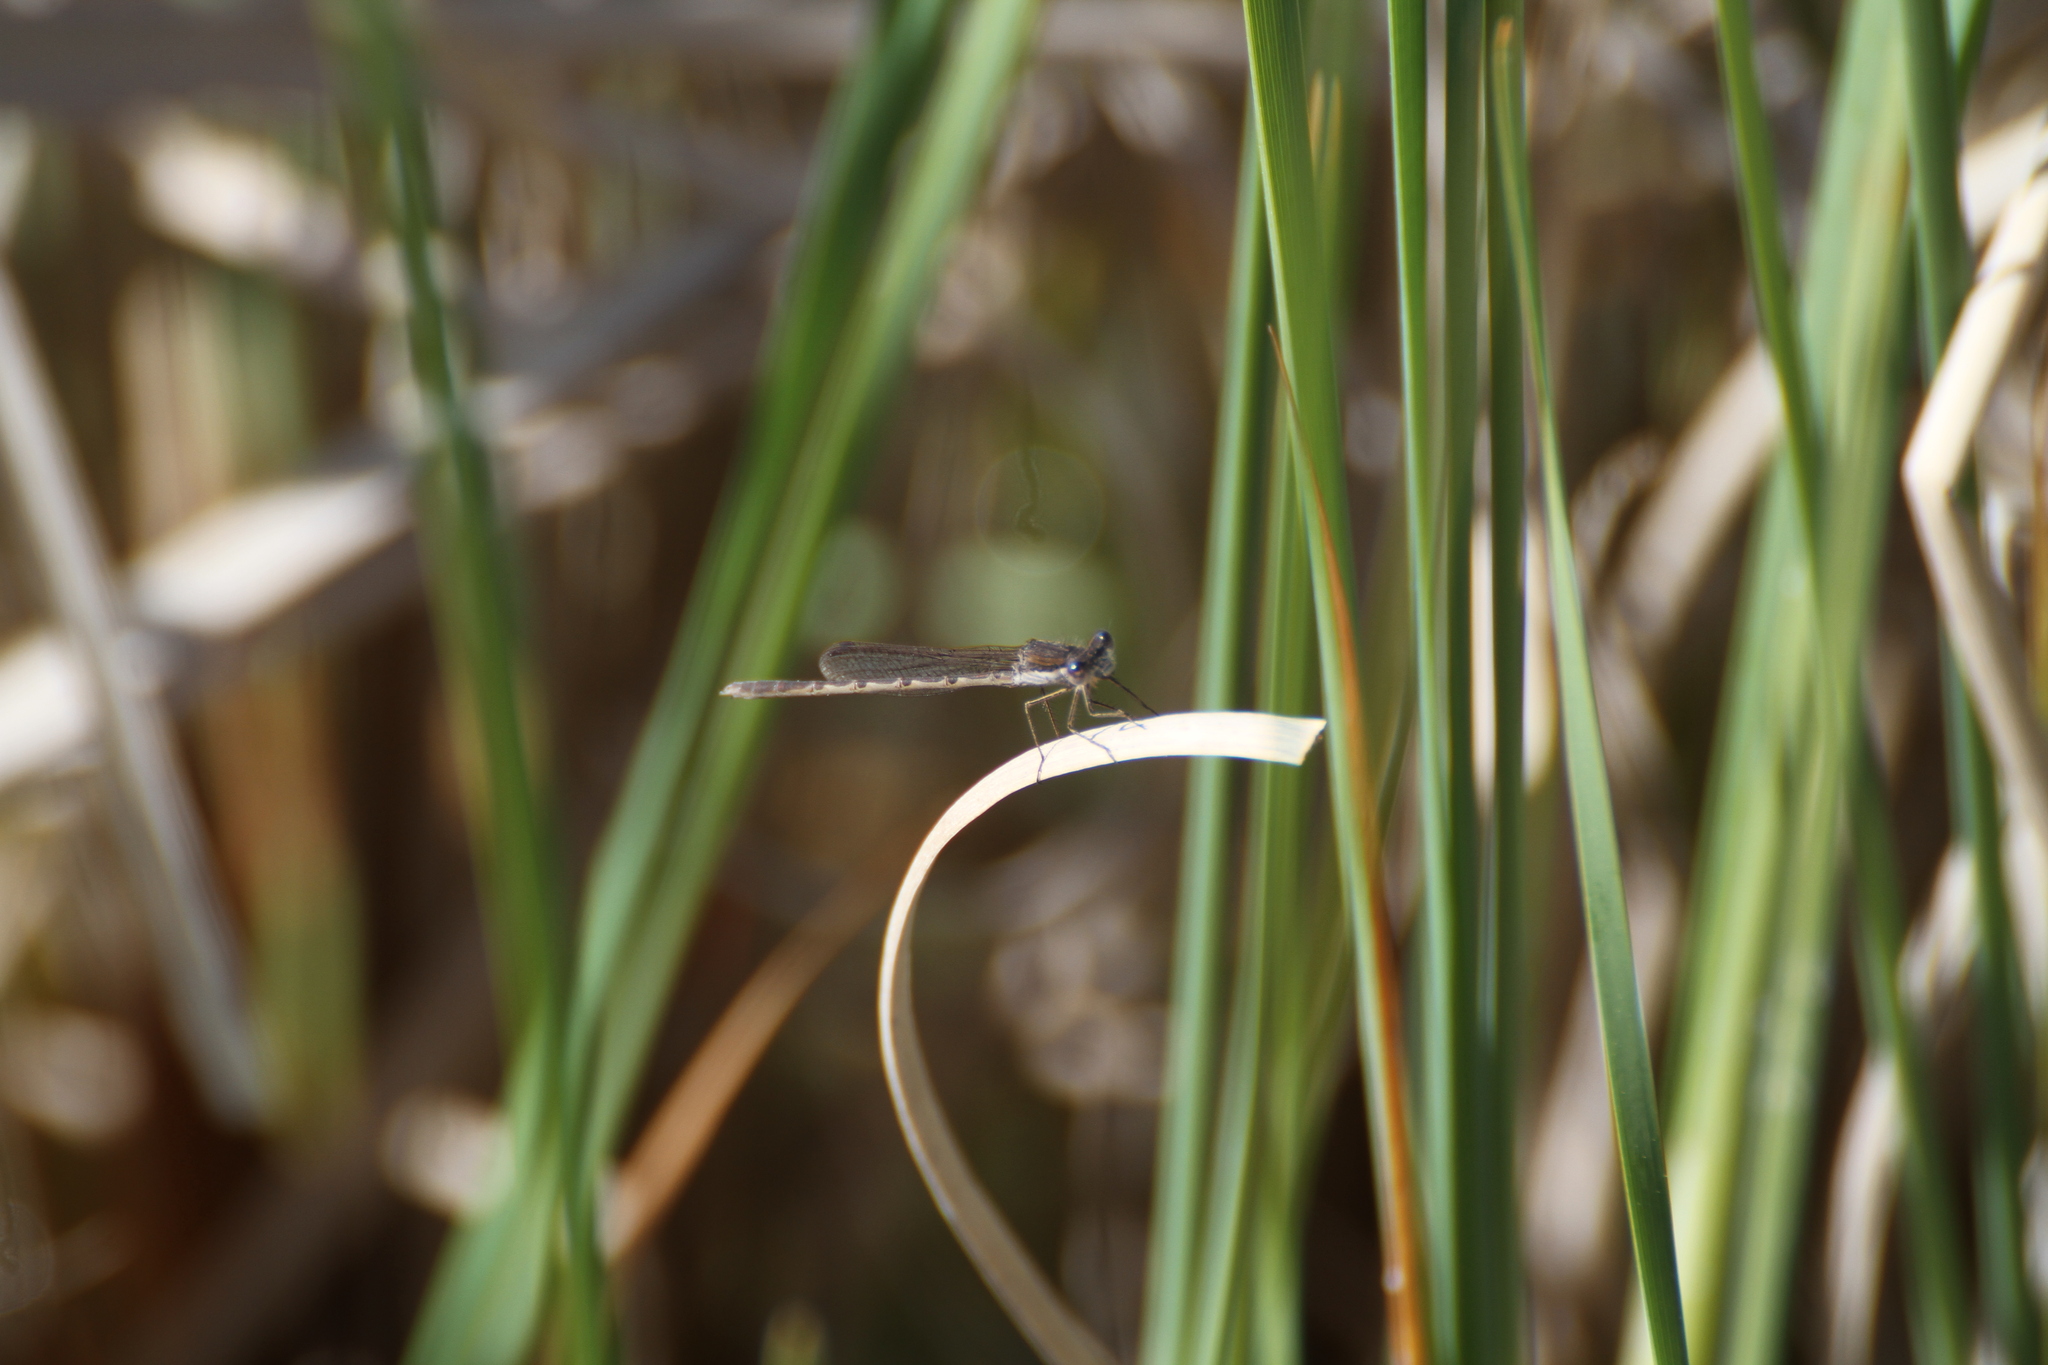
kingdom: Animalia
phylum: Arthropoda
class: Insecta
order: Odonata
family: Lestidae
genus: Sympecma
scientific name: Sympecma fusca
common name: Common winter damsel
